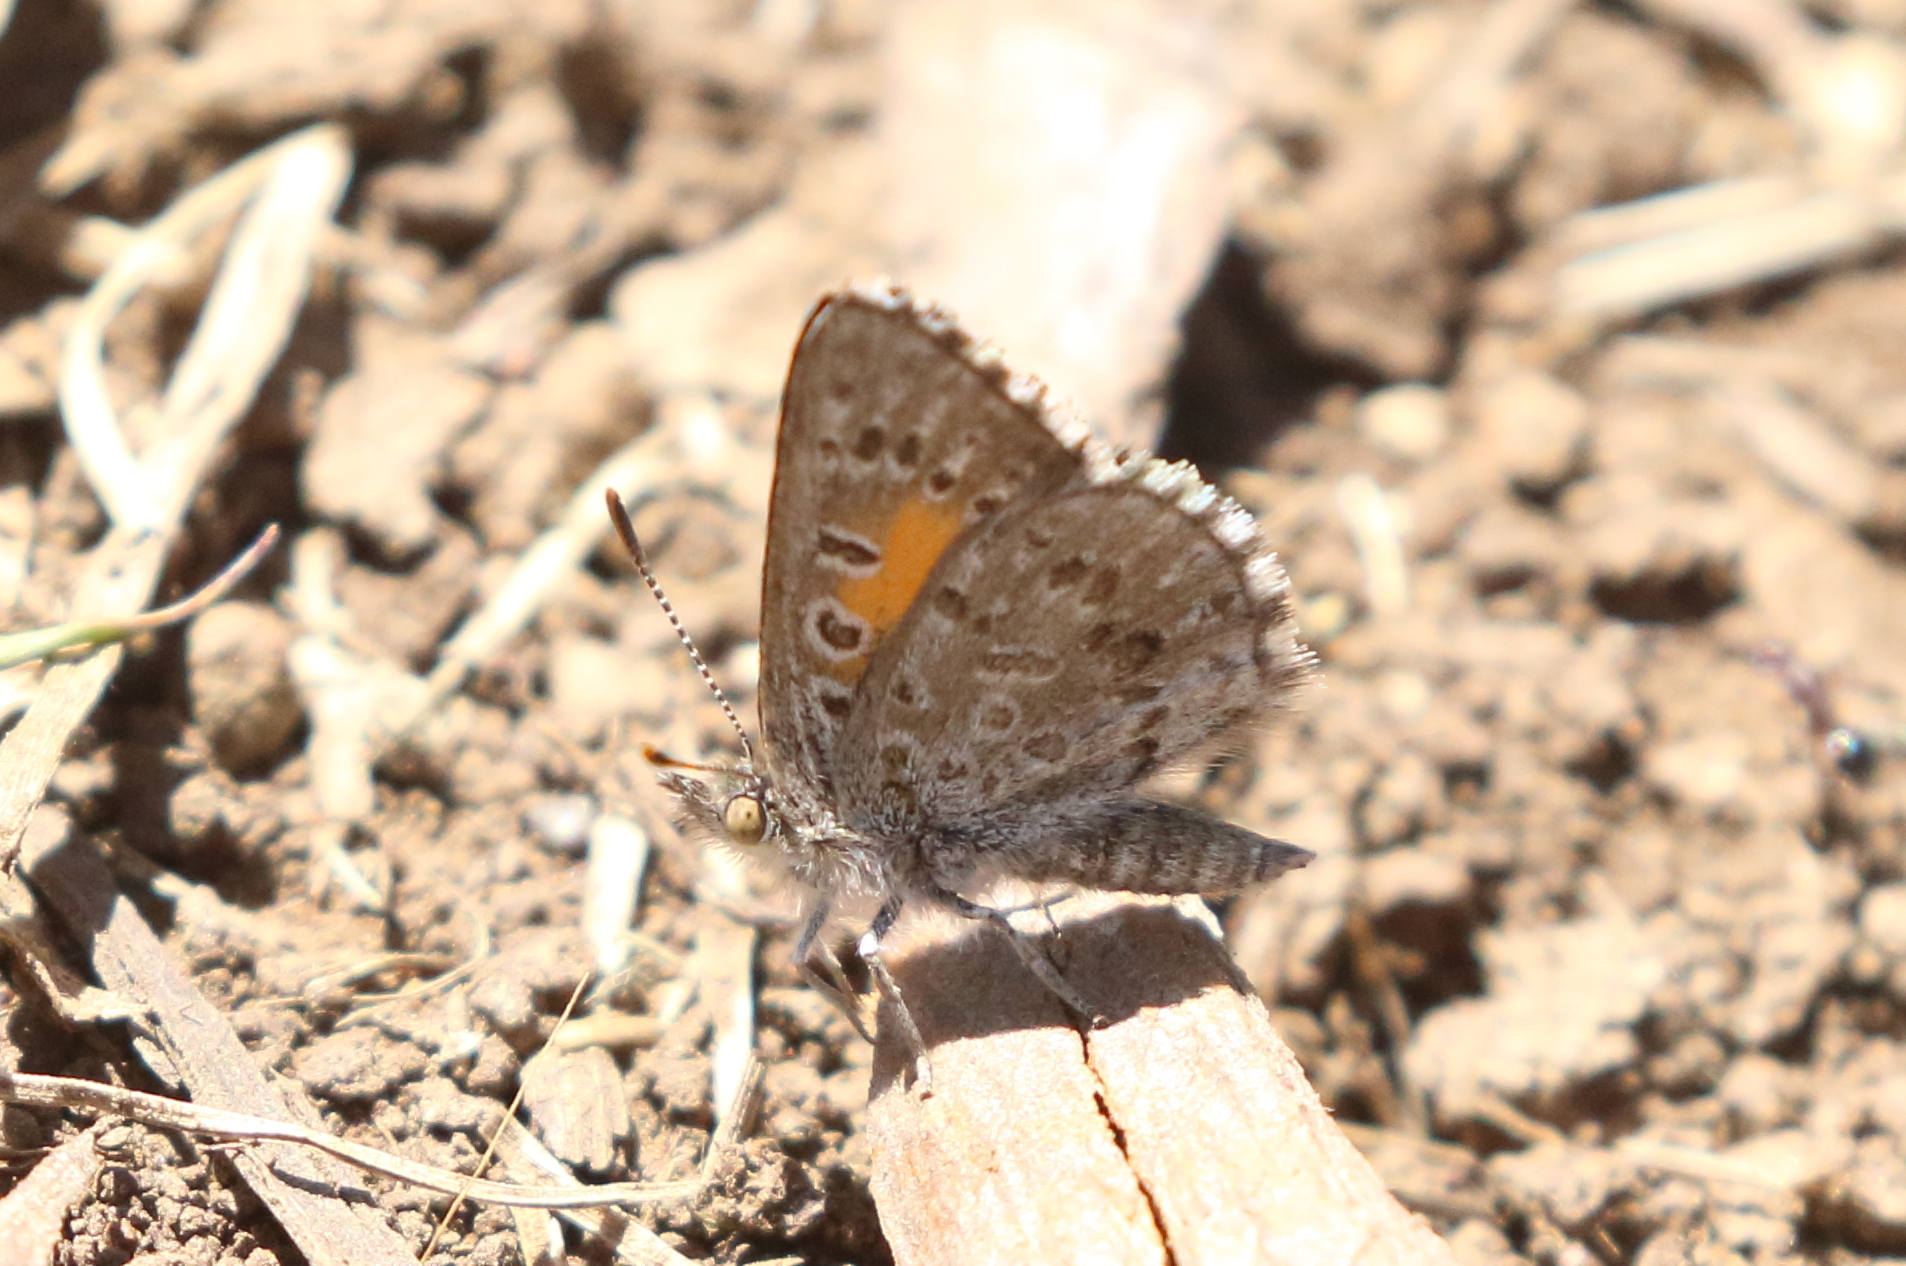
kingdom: Animalia
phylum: Arthropoda
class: Insecta
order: Lepidoptera
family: Lycaenidae
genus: Lucia
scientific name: Lucia limbaria
